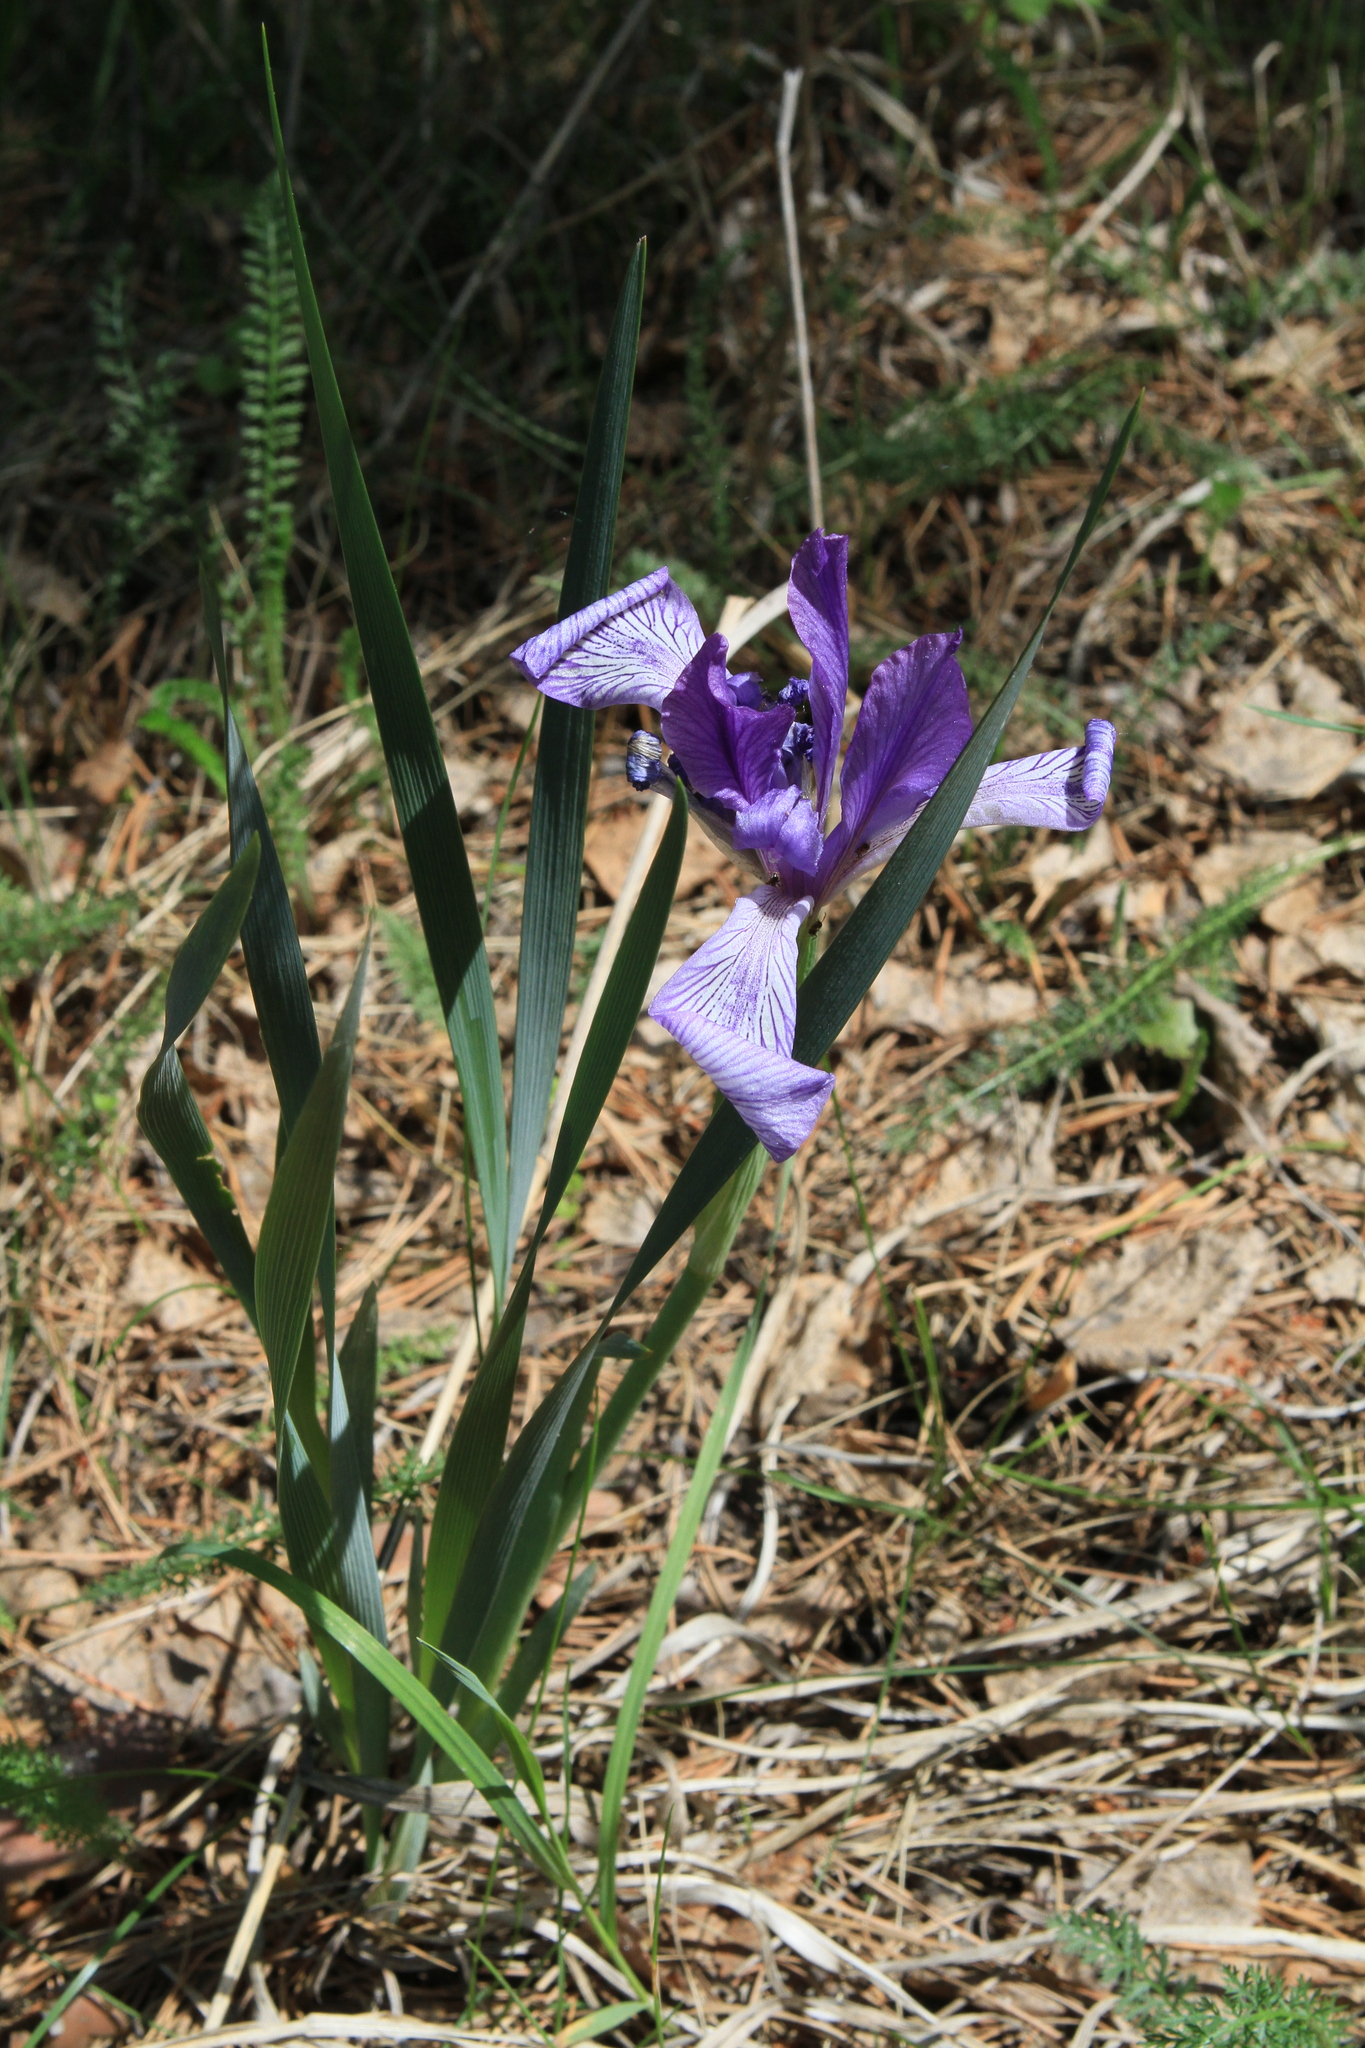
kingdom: Plantae
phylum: Tracheophyta
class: Liliopsida
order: Asparagales
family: Iridaceae
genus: Iris
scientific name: Iris lactea
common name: White-flower chinese iris
